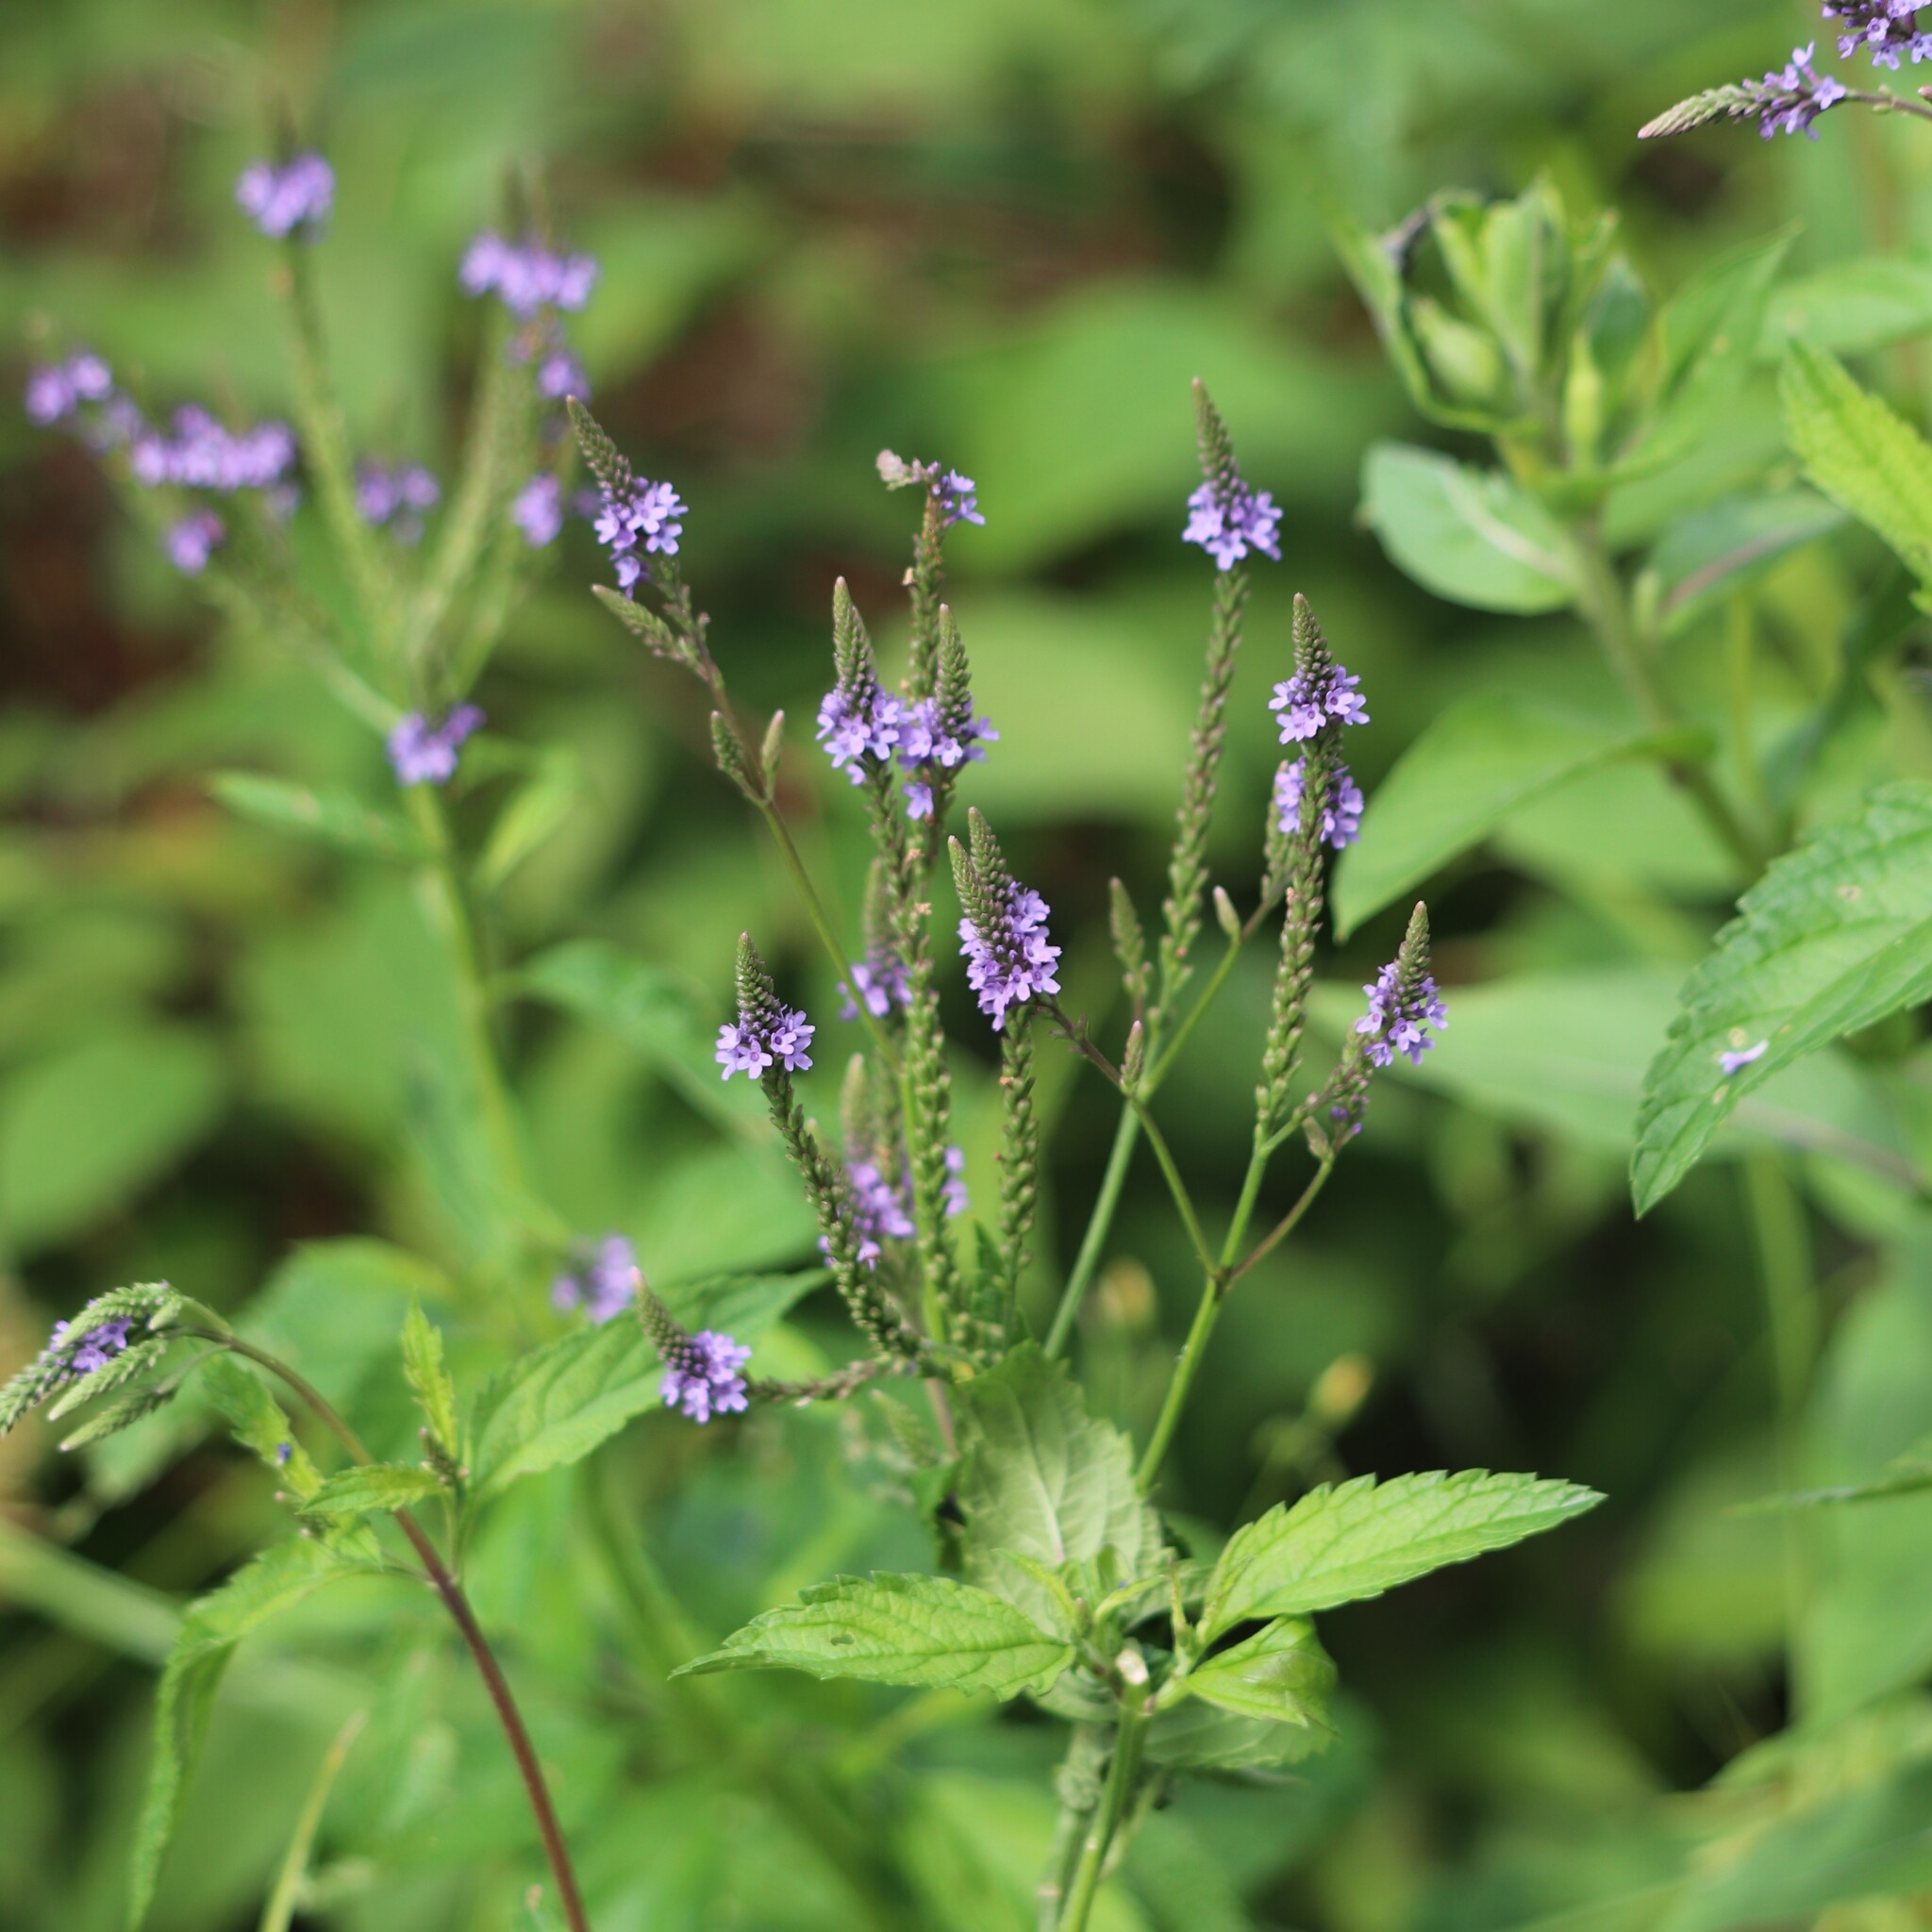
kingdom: Plantae
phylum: Tracheophyta
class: Magnoliopsida
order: Lamiales
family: Verbenaceae
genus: Verbena
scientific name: Verbena hastata
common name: American blue vervain
